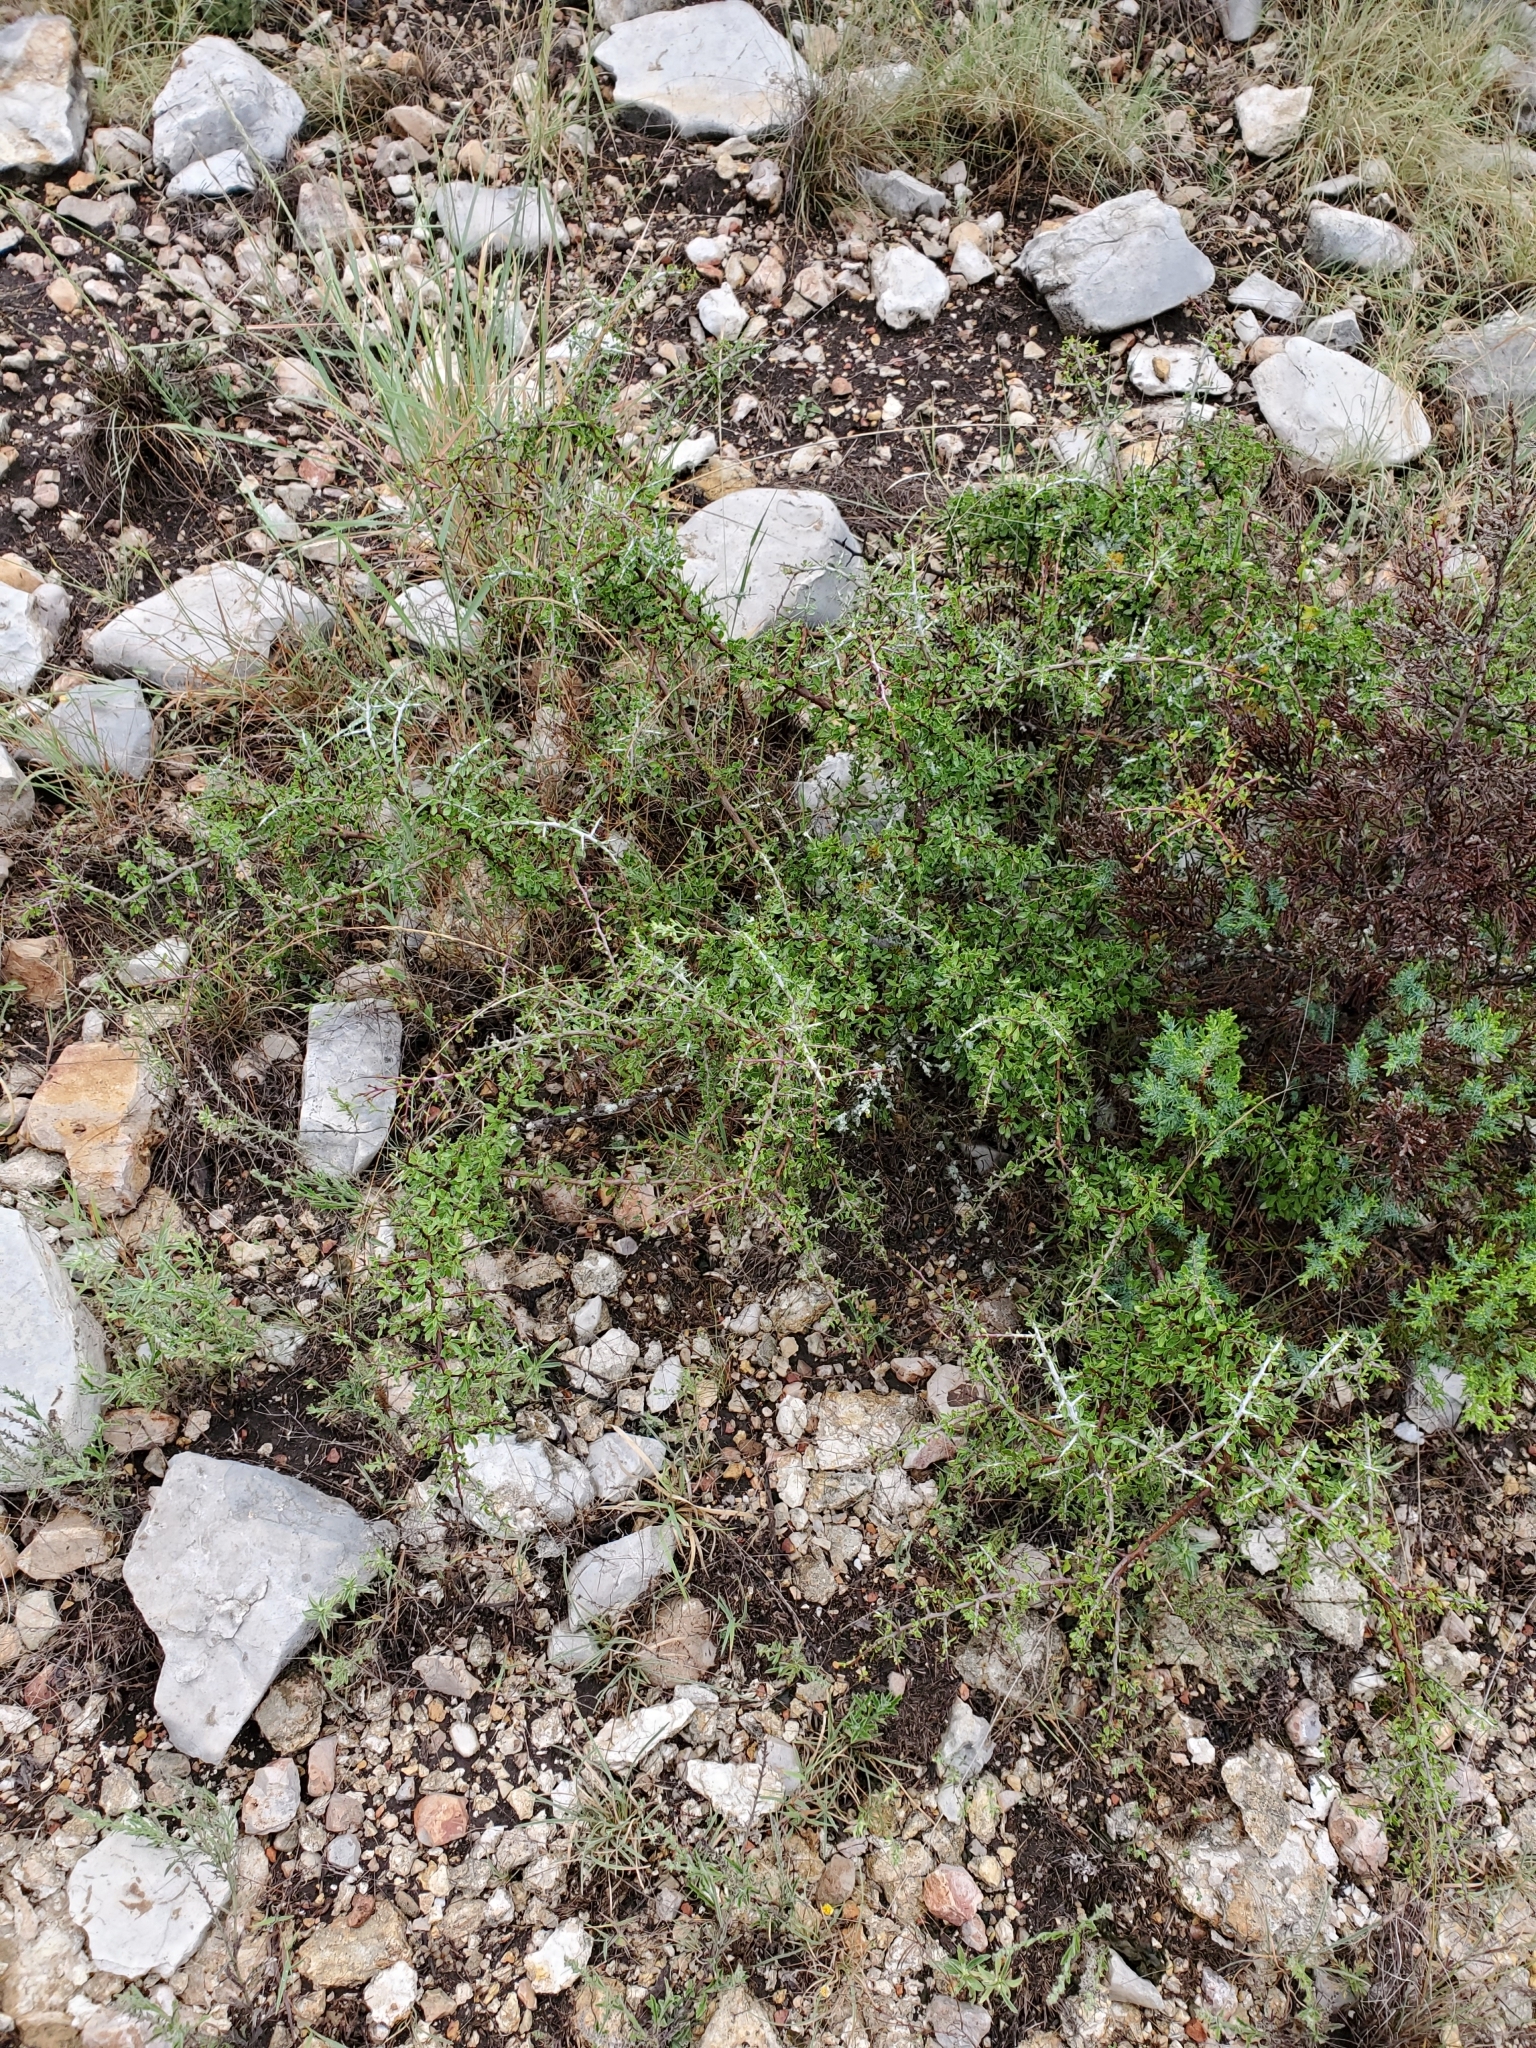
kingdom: Plantae
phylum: Tracheophyta
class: Magnoliopsida
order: Rosales
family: Rhamnaceae
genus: Condalia
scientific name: Condalia viridis
